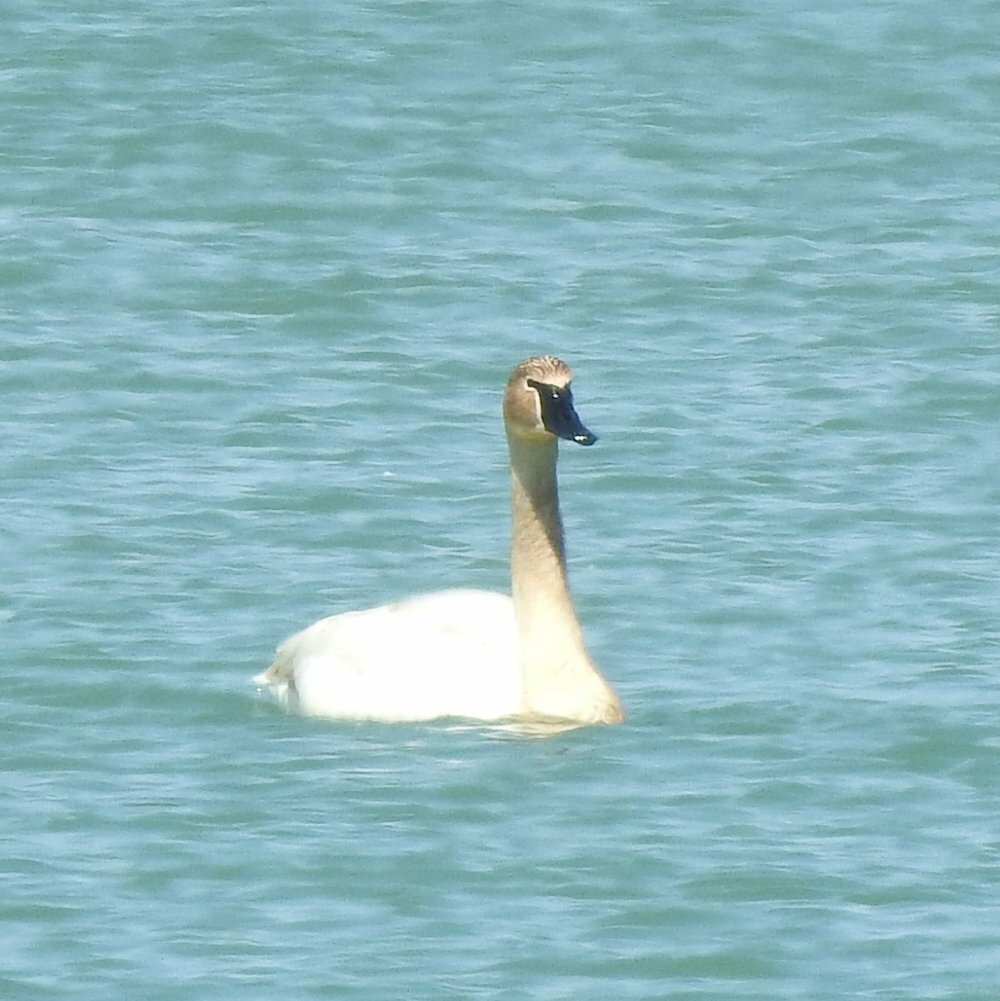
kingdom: Animalia
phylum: Chordata
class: Aves
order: Anseriformes
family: Anatidae
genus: Cygnus
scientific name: Cygnus buccinator
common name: Trumpeter swan
